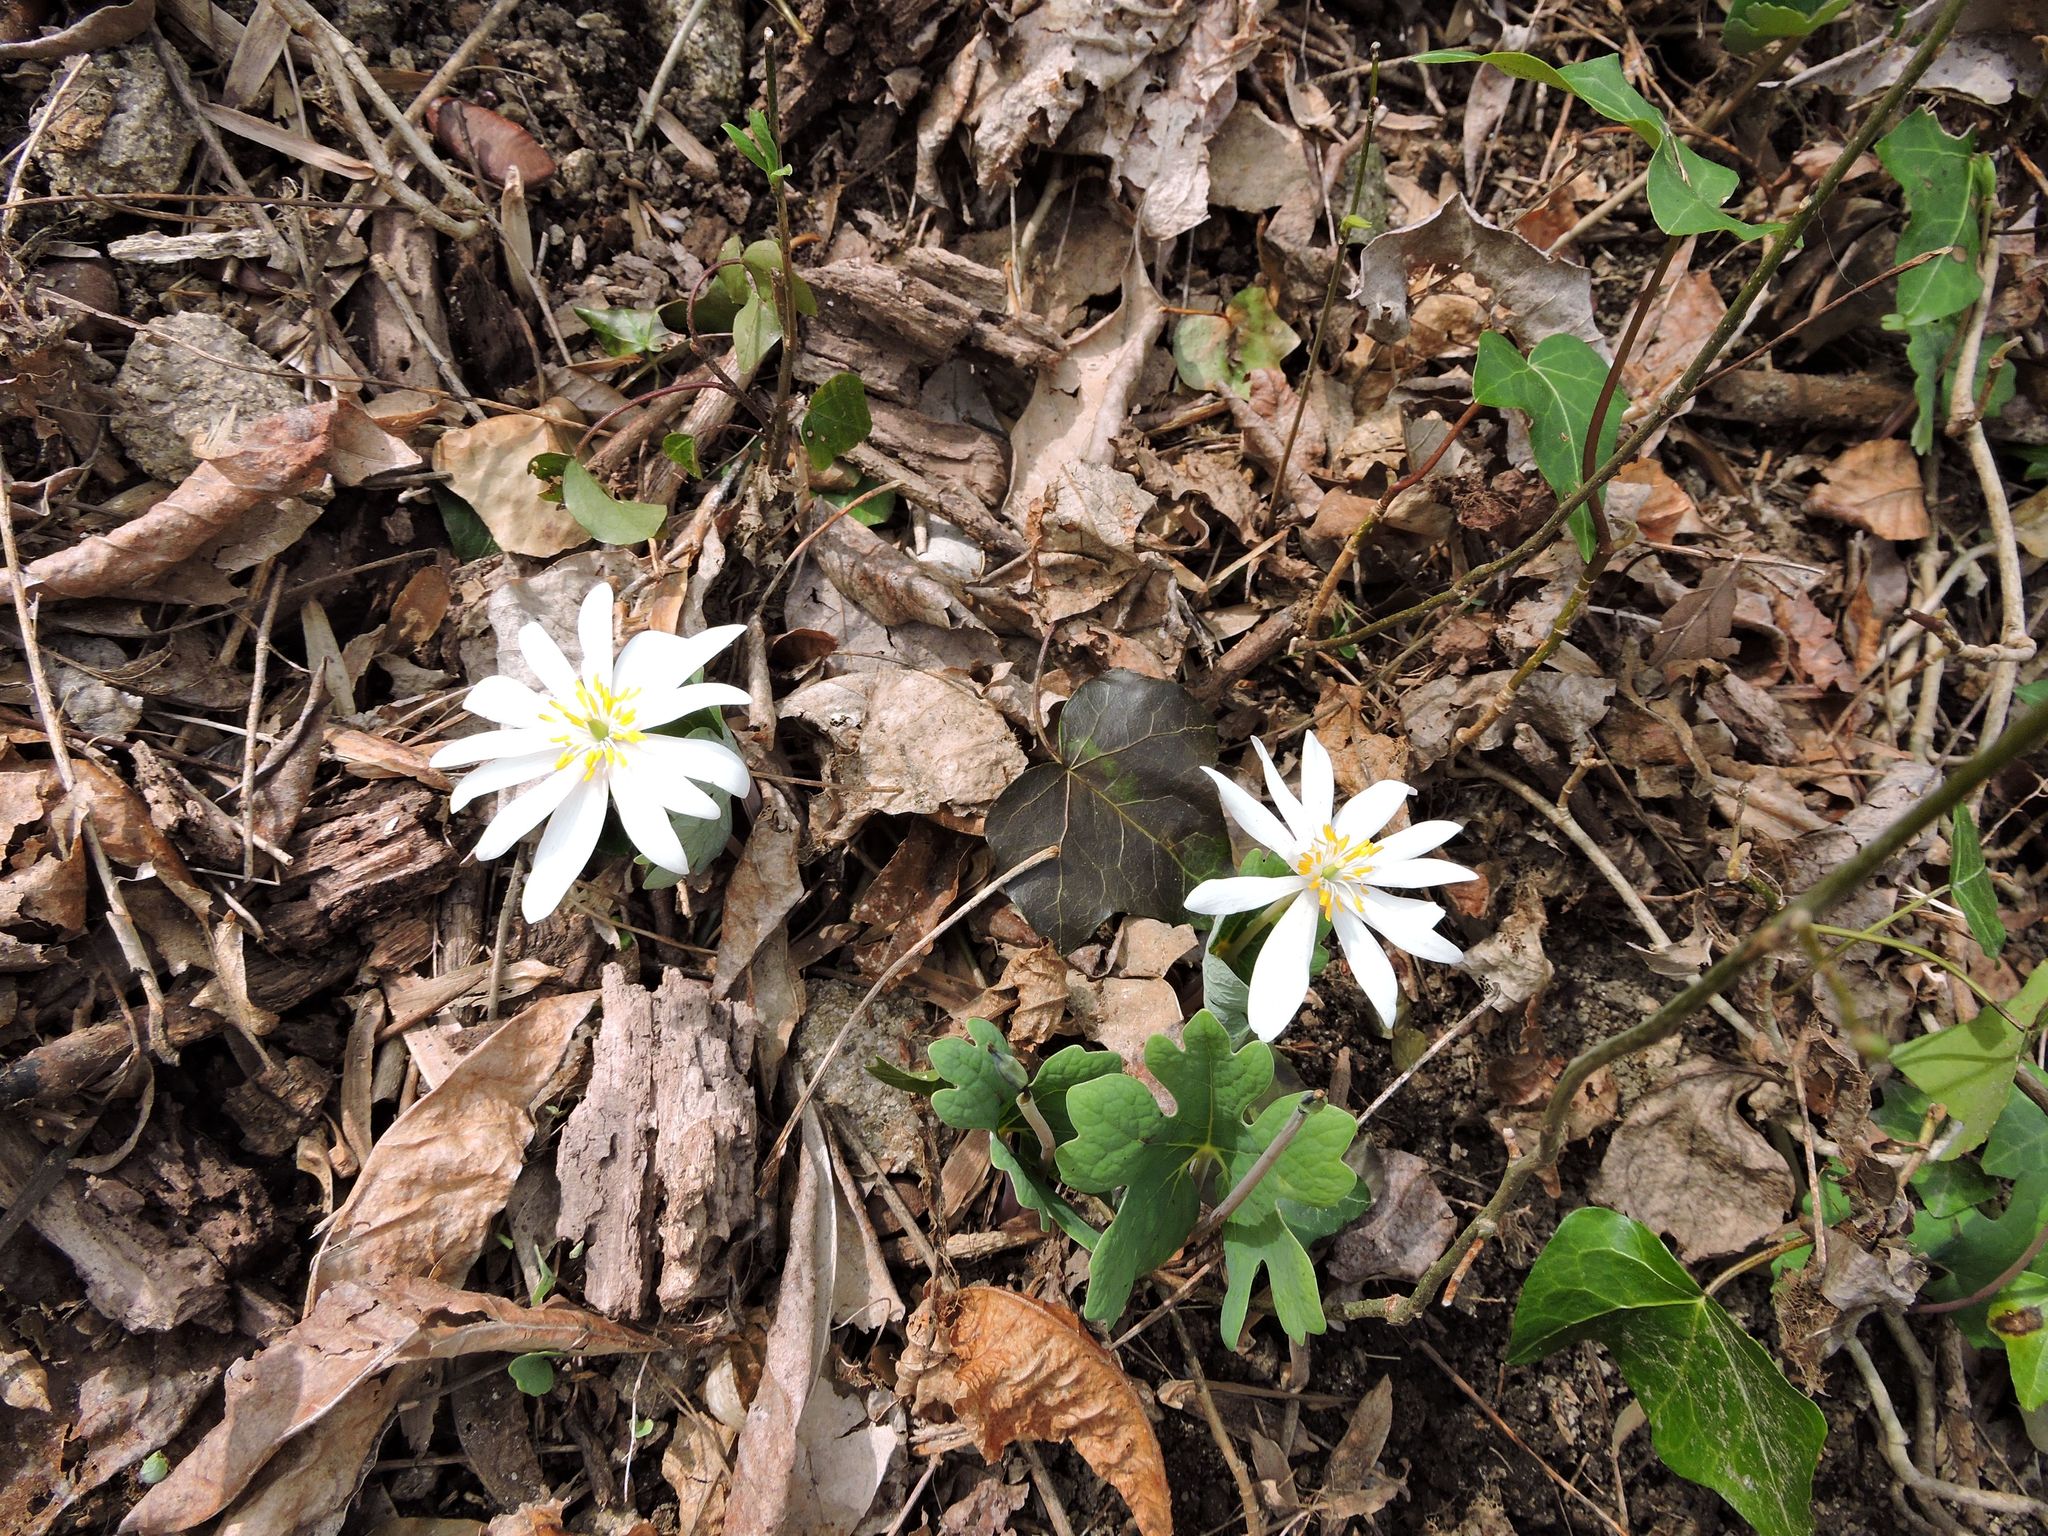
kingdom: Plantae
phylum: Tracheophyta
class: Magnoliopsida
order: Ranunculales
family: Papaveraceae
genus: Sanguinaria
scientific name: Sanguinaria canadensis
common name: Bloodroot
